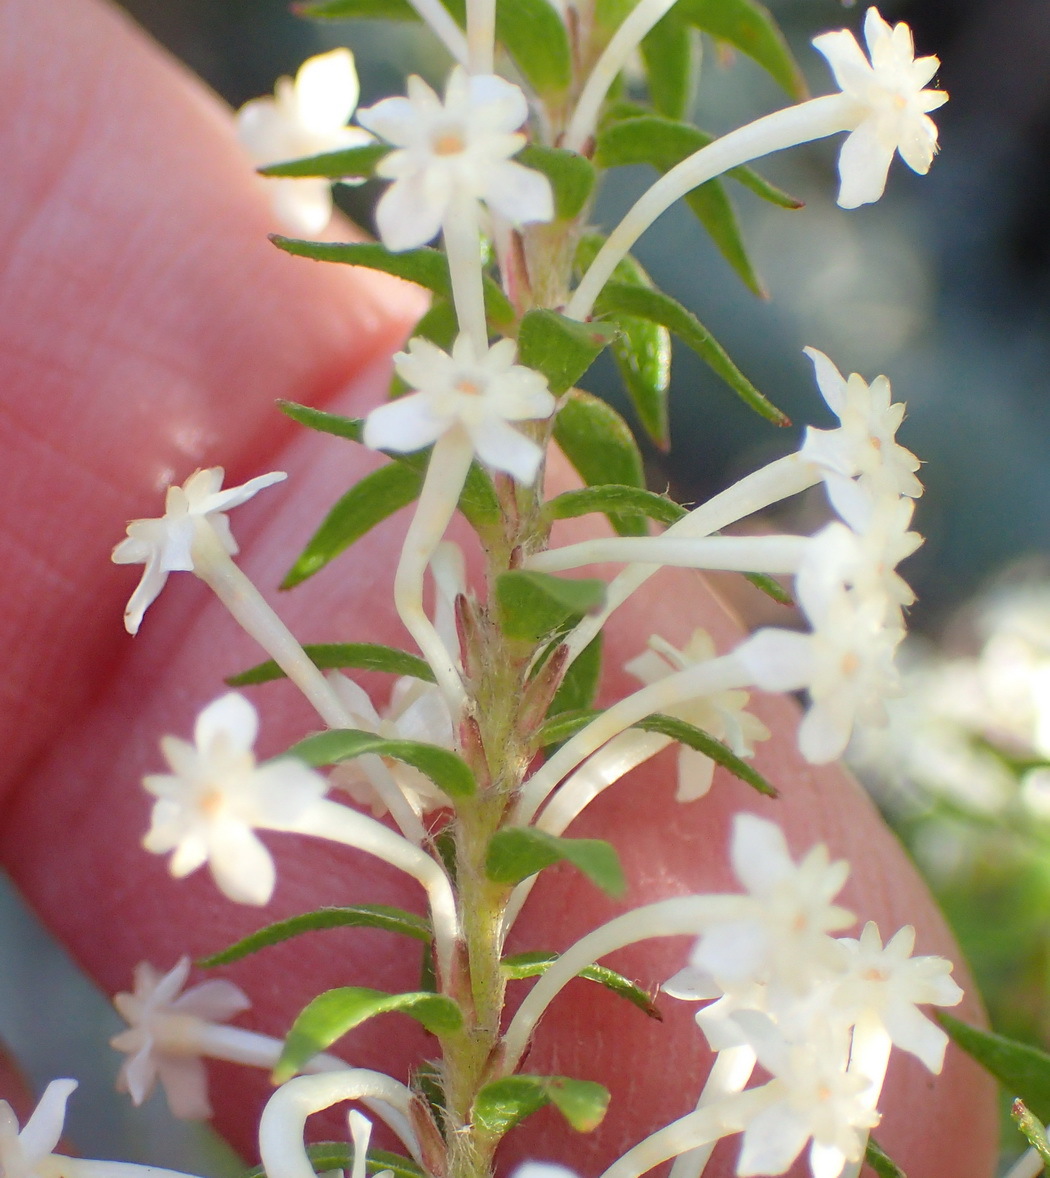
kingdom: Plantae
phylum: Tracheophyta
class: Magnoliopsida
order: Malvales
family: Thymelaeaceae
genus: Struthiola
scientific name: Struthiola hirsuta
